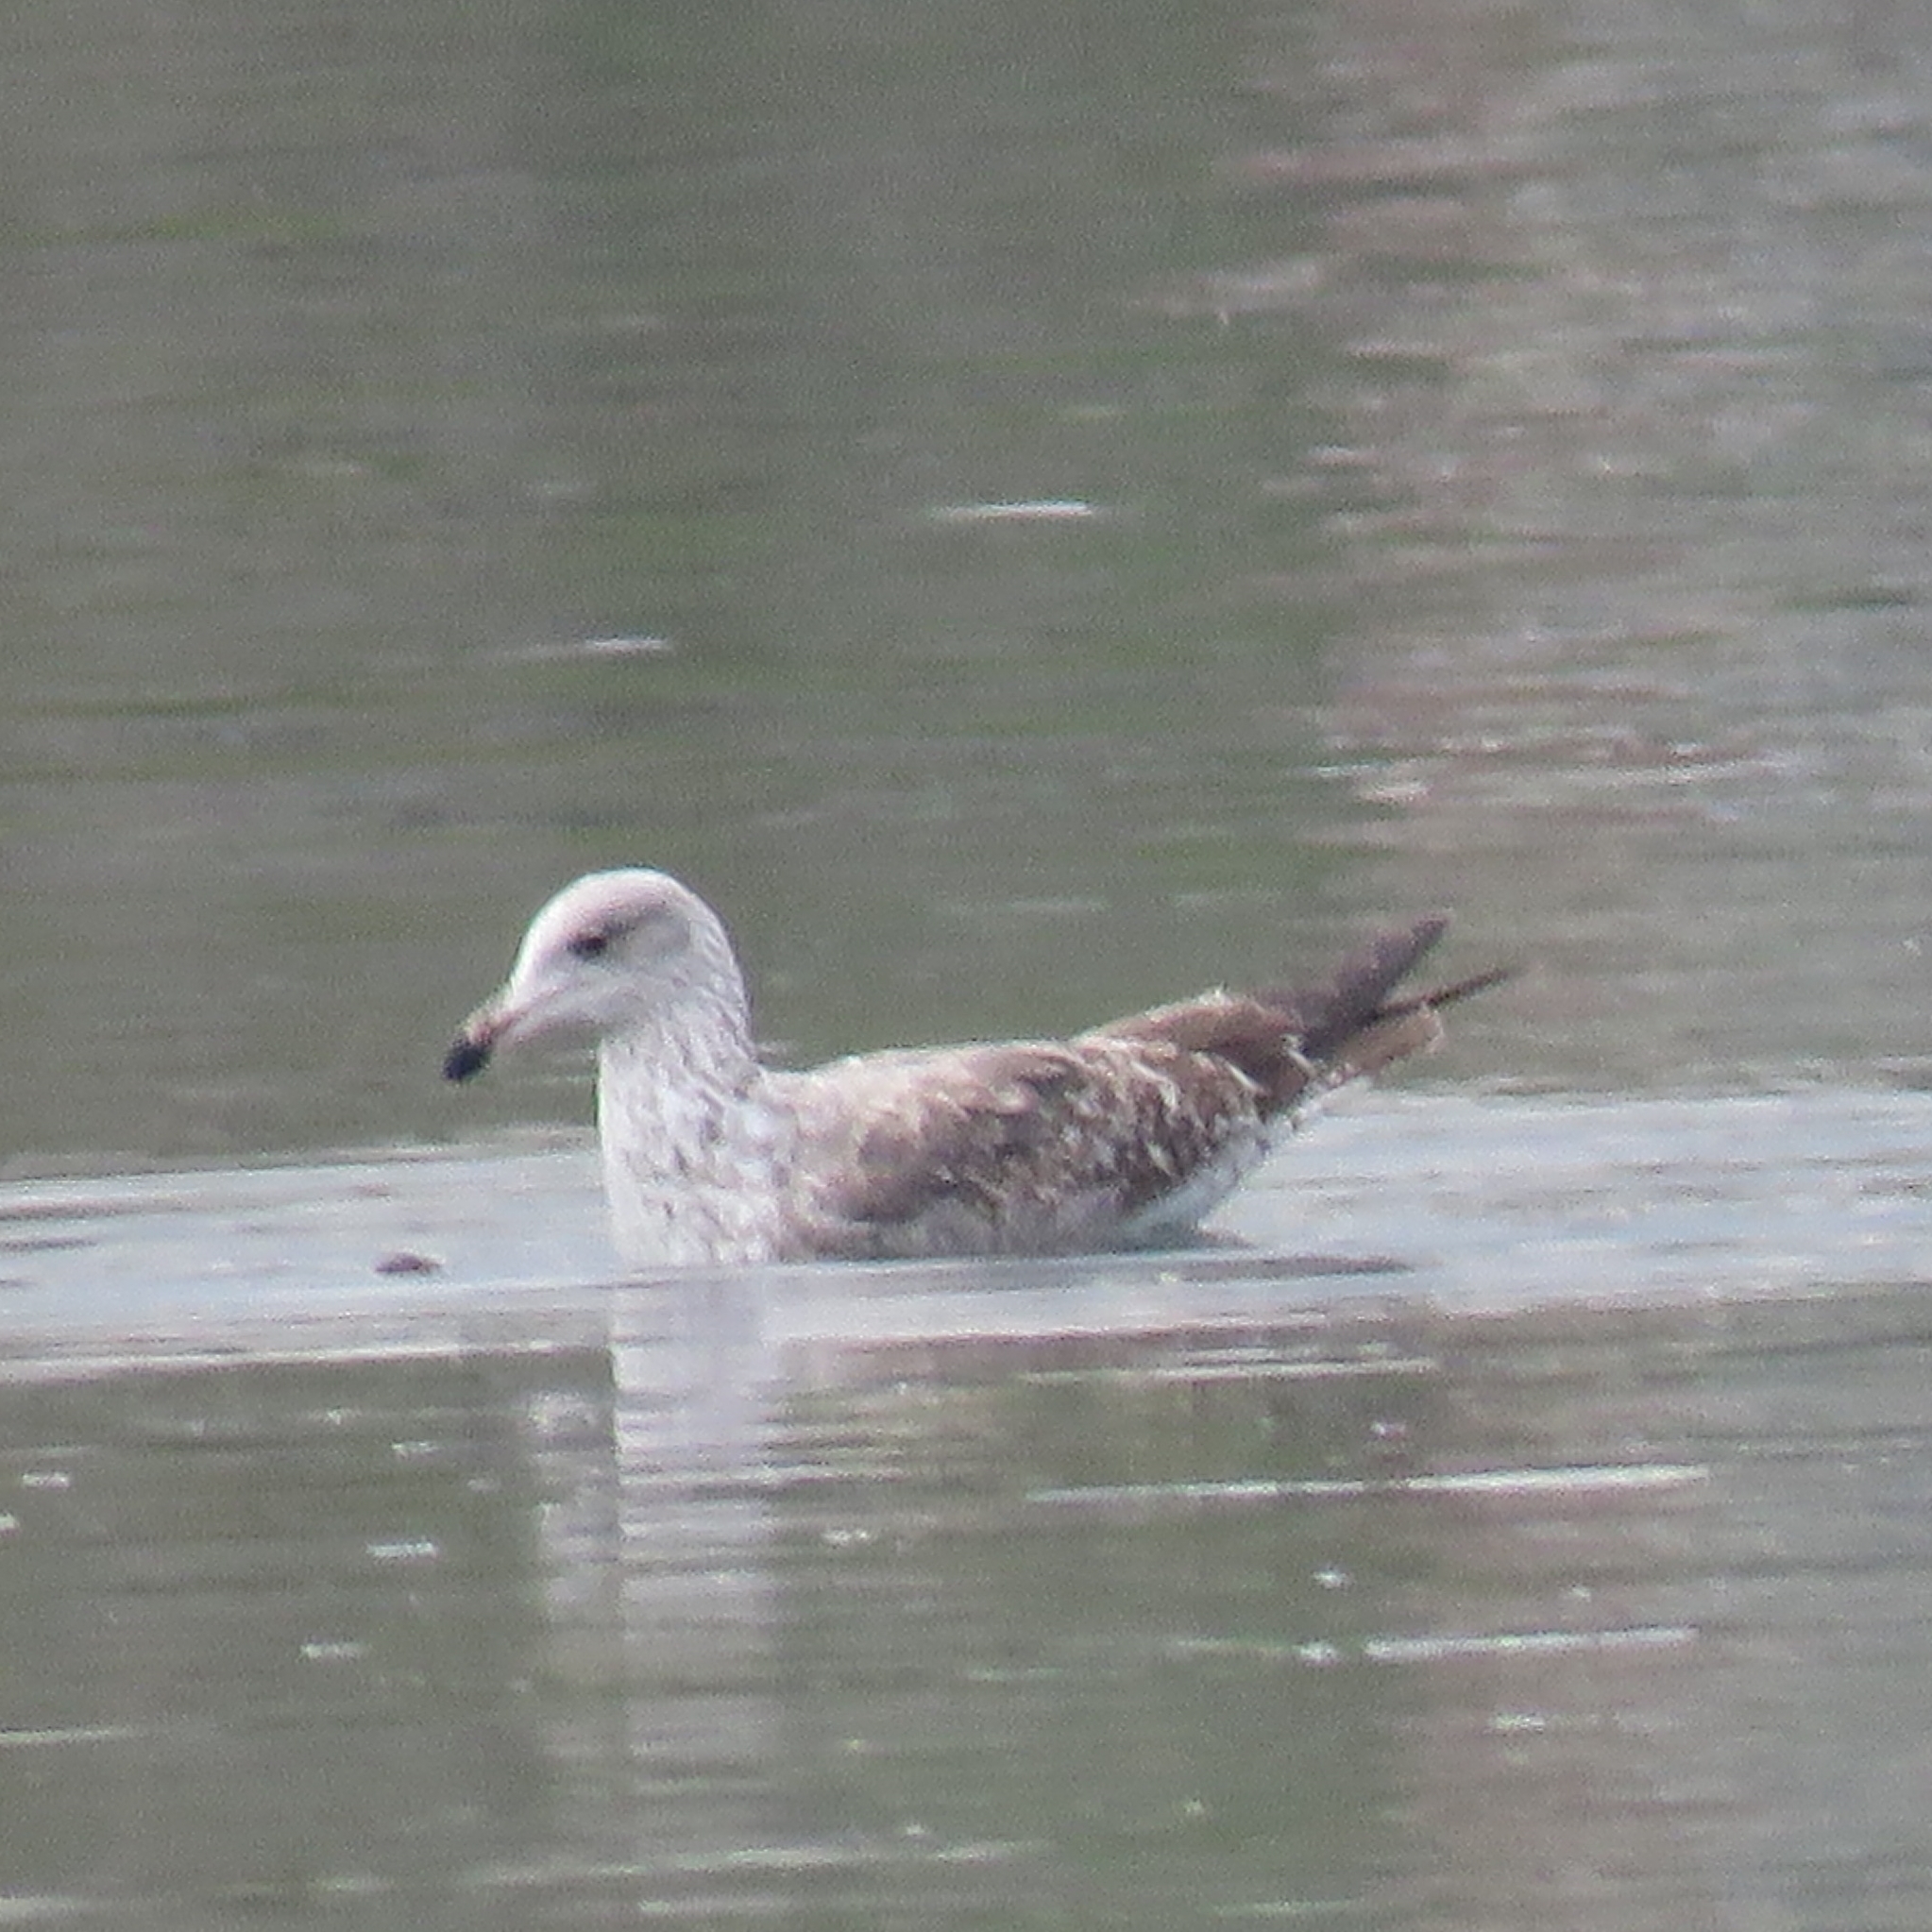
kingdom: Animalia
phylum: Chordata
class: Aves
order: Charadriiformes
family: Laridae
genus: Larus
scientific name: Larus argentatus
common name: Herring gull
